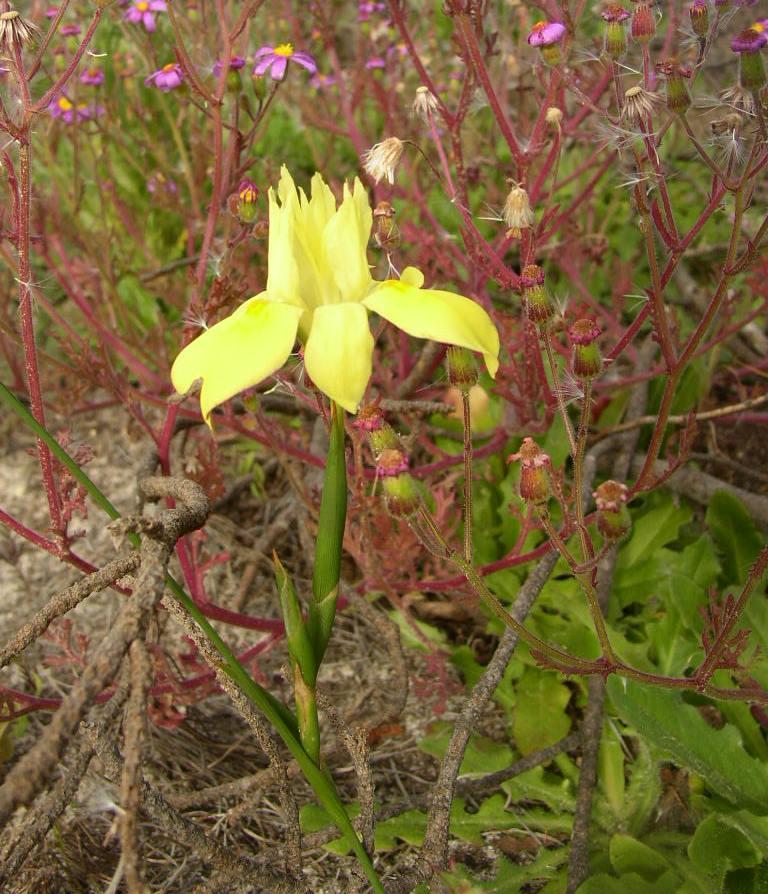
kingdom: Plantae
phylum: Tracheophyta
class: Liliopsida
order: Asparagales
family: Iridaceae
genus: Moraea
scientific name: Moraea fugax
